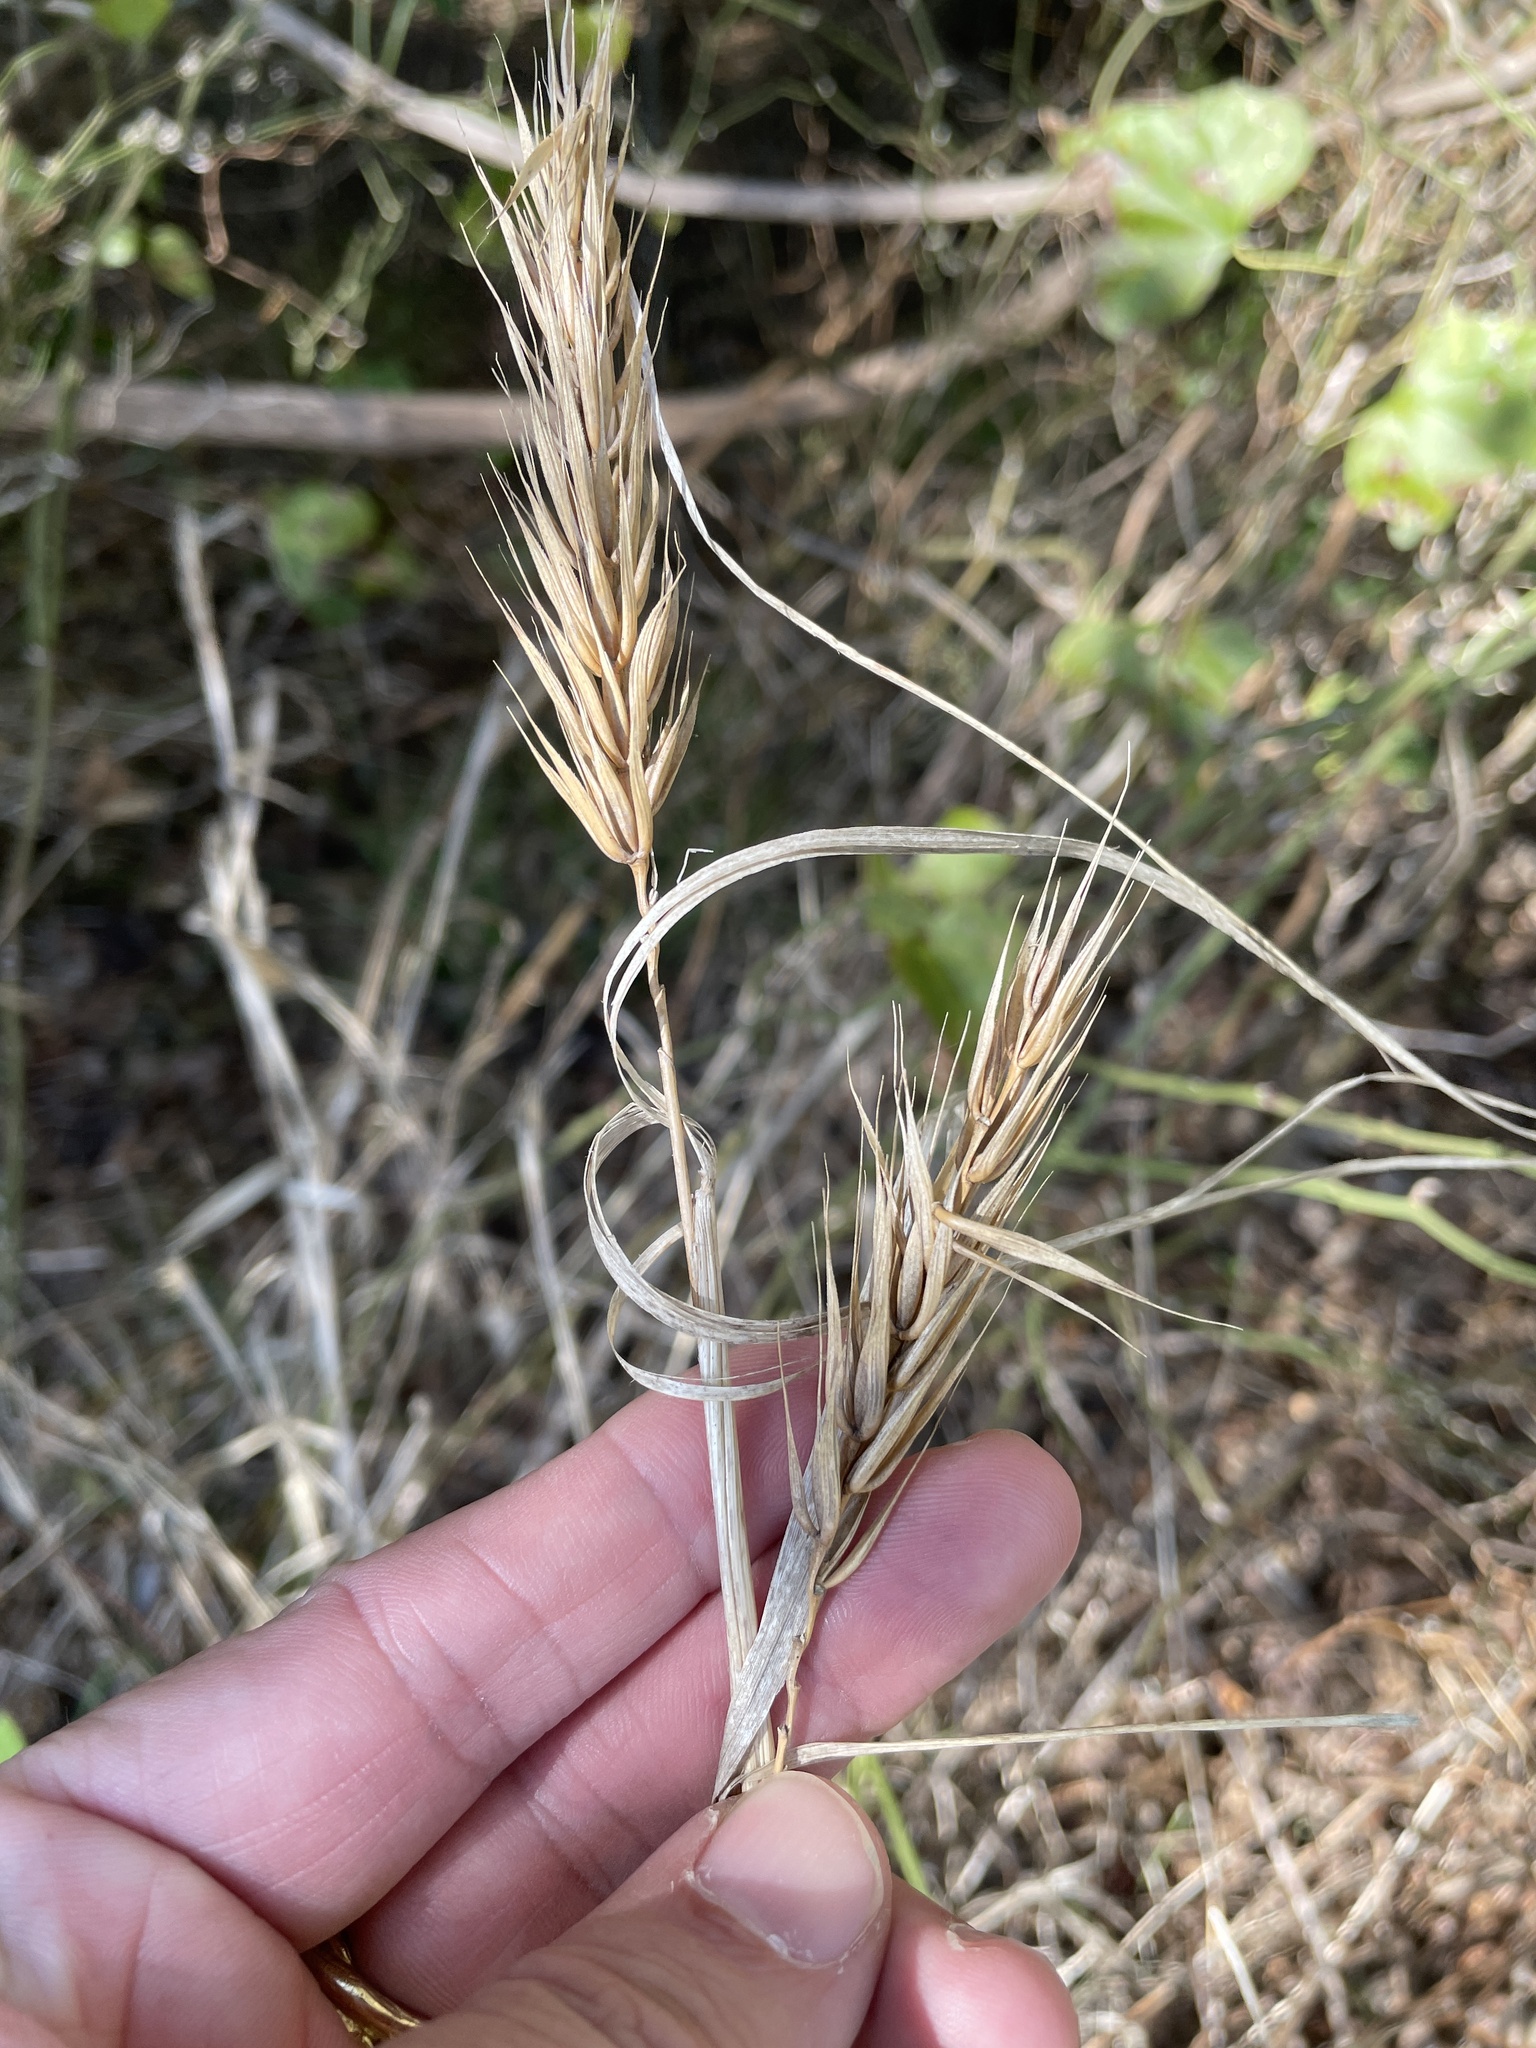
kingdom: Plantae
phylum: Tracheophyta
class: Liliopsida
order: Poales
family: Poaceae
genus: Elymus
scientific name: Elymus virginicus
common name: Common eastern wildrye
